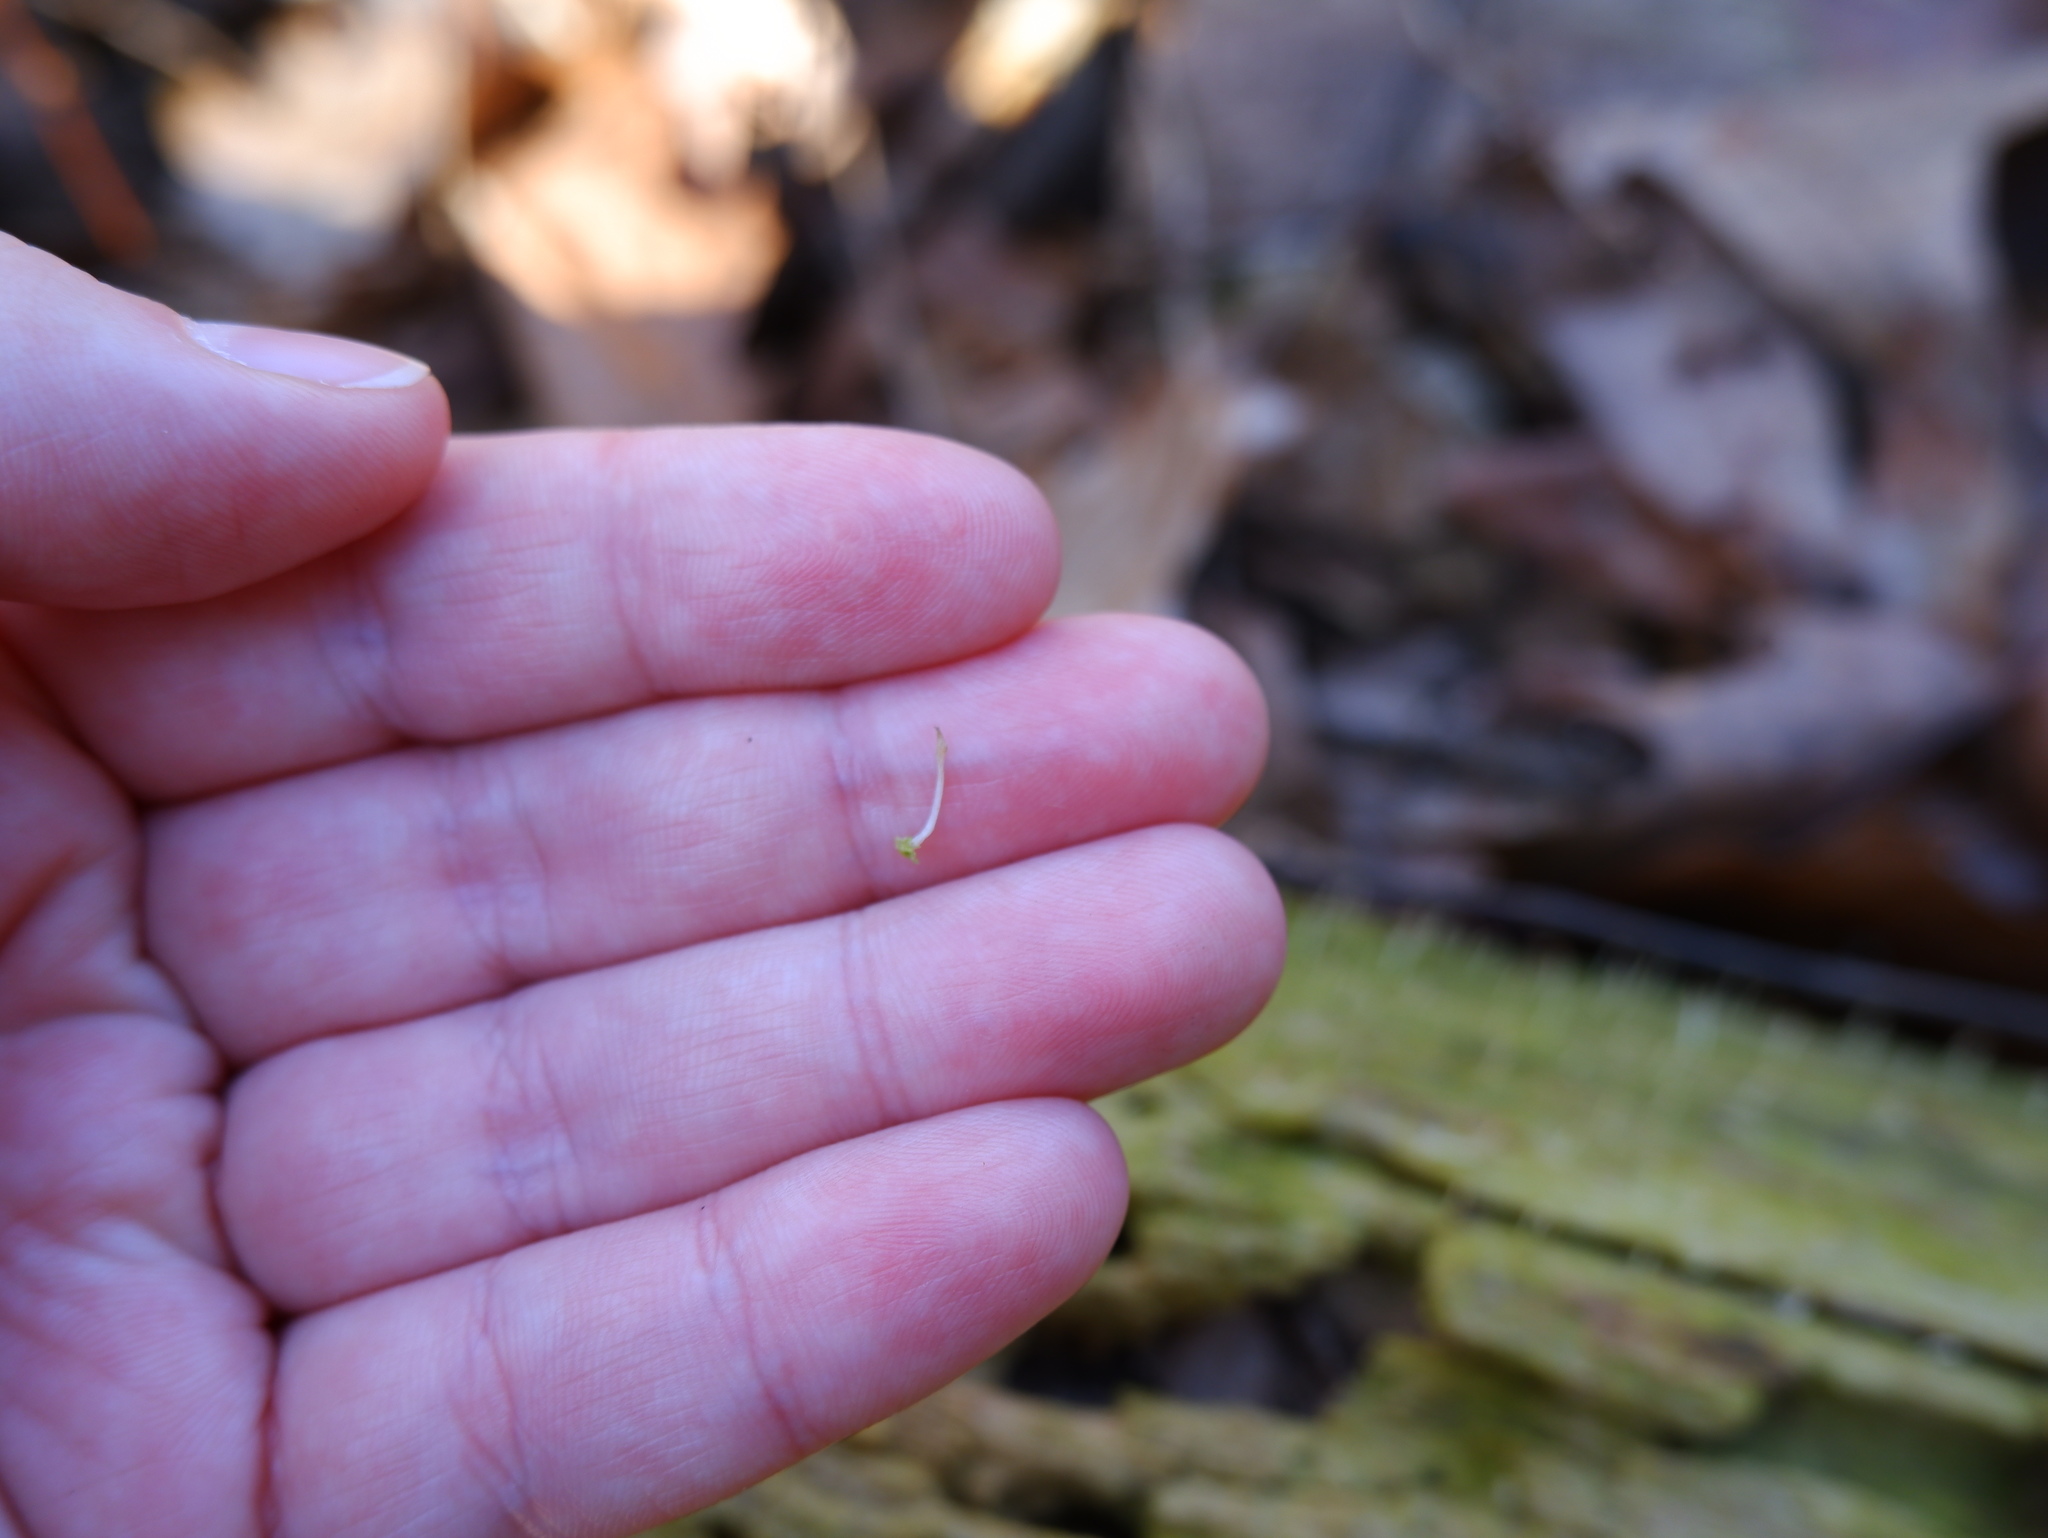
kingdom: Fungi
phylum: Basidiomycota
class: Agaricomycetes
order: Cantharellales
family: Hydnaceae
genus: Multiclavula
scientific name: Multiclavula mucida
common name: White green-algae coral
